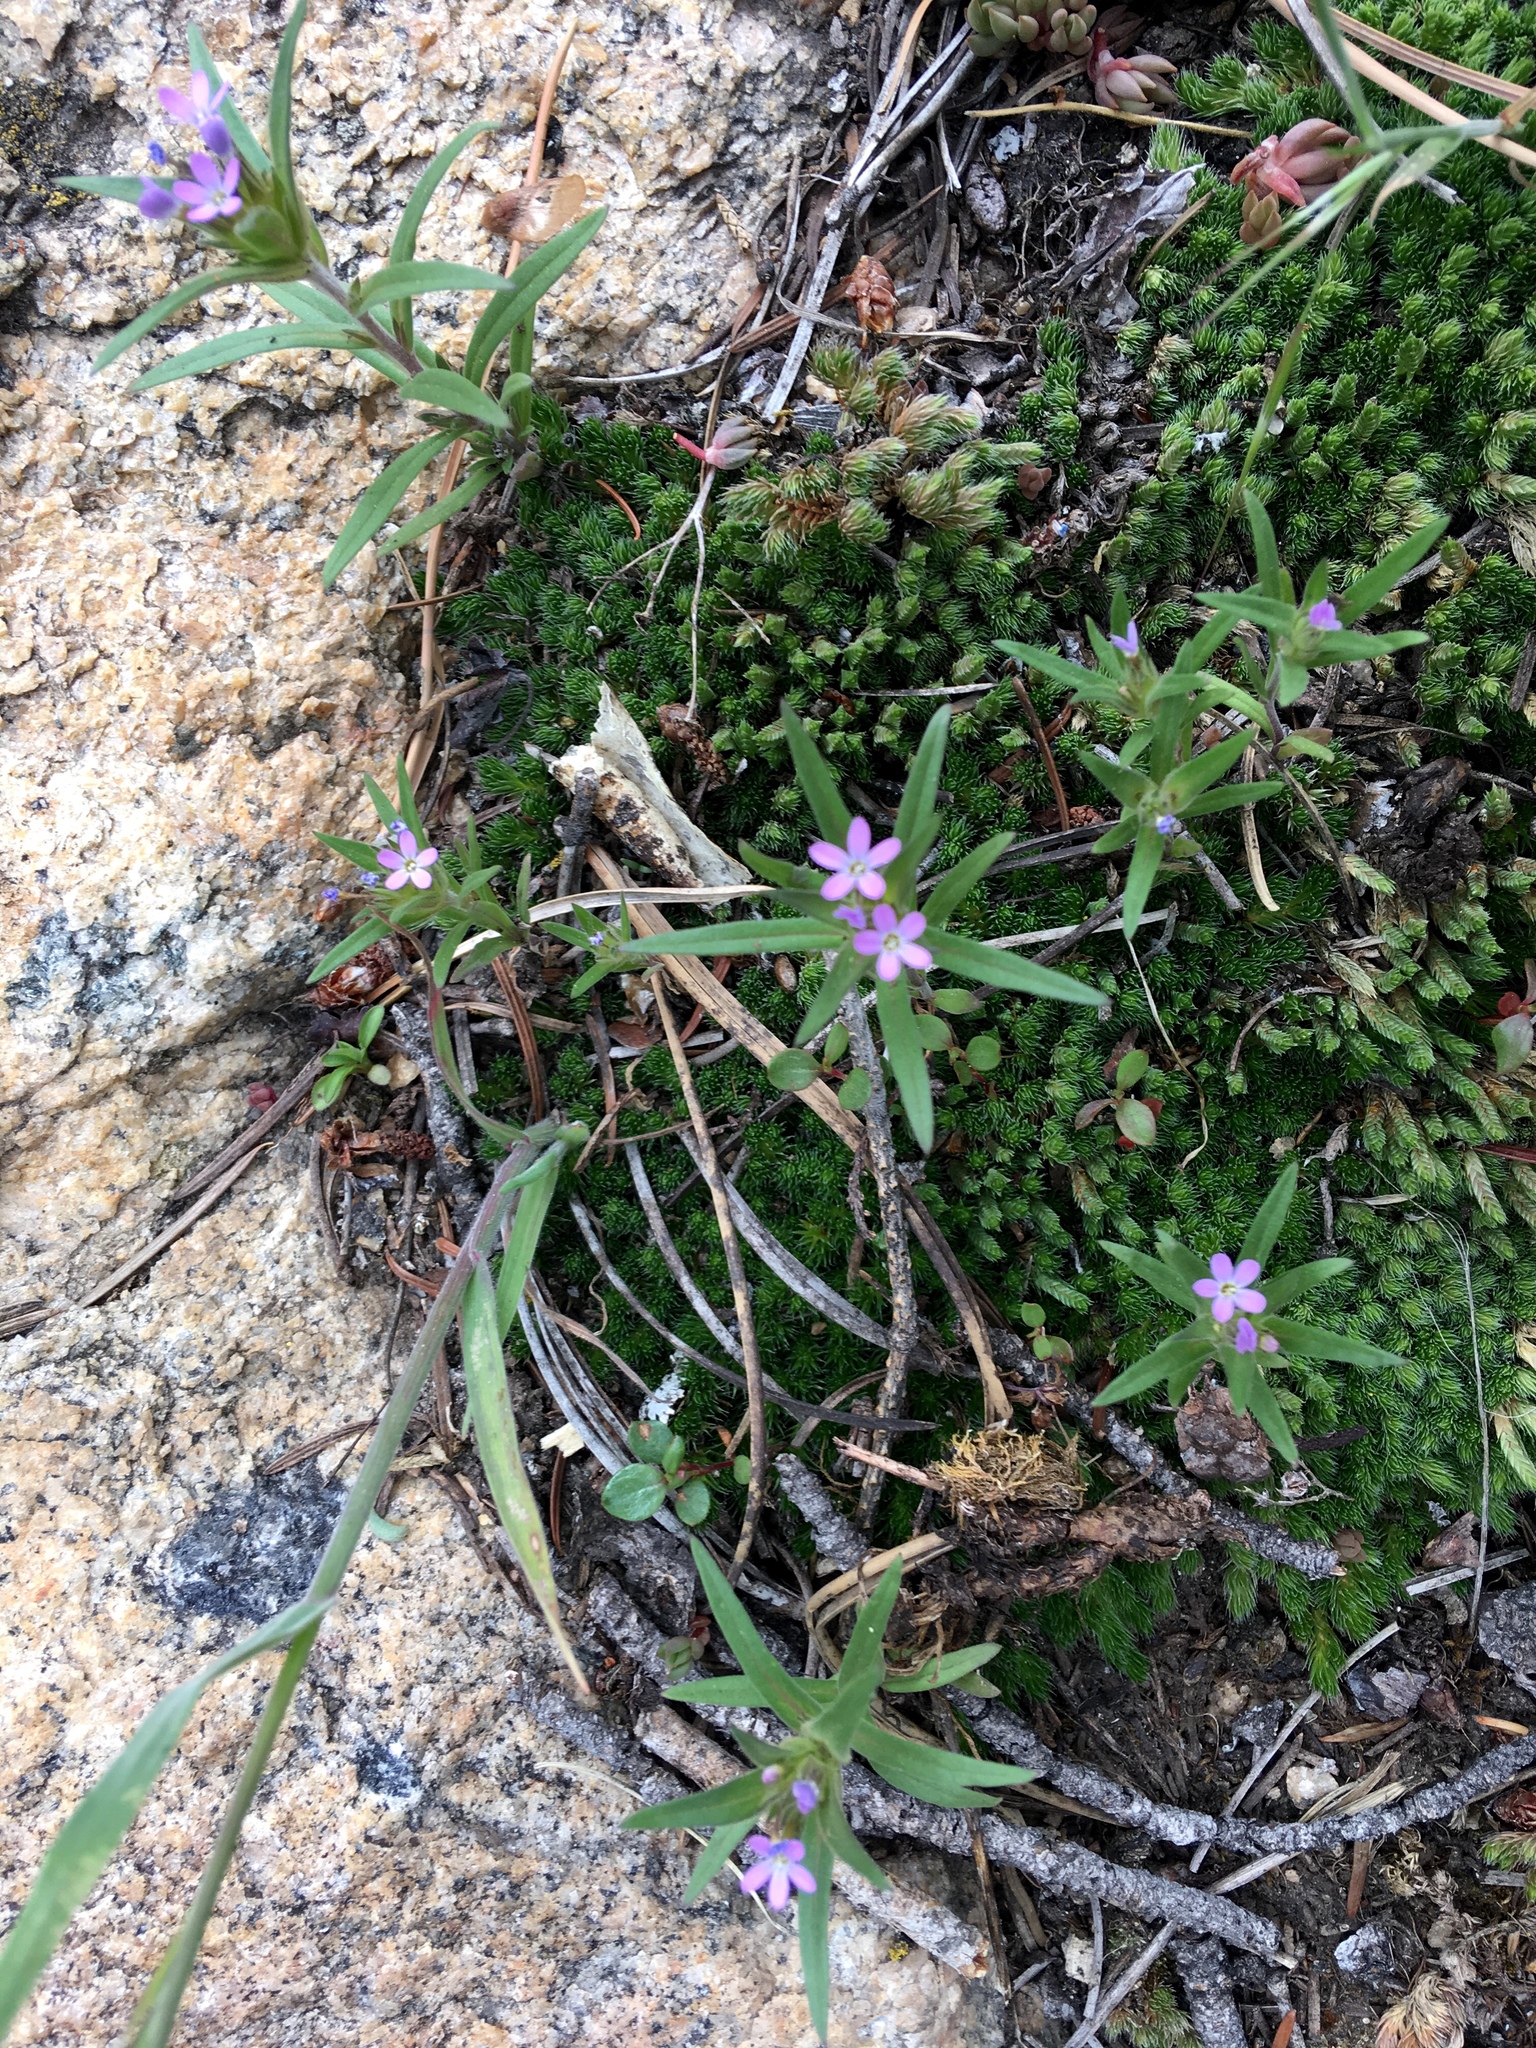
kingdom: Plantae
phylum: Tracheophyta
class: Magnoliopsida
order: Ericales
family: Polemoniaceae
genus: Collomia
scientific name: Collomia linearis
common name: Tiny trumpet
